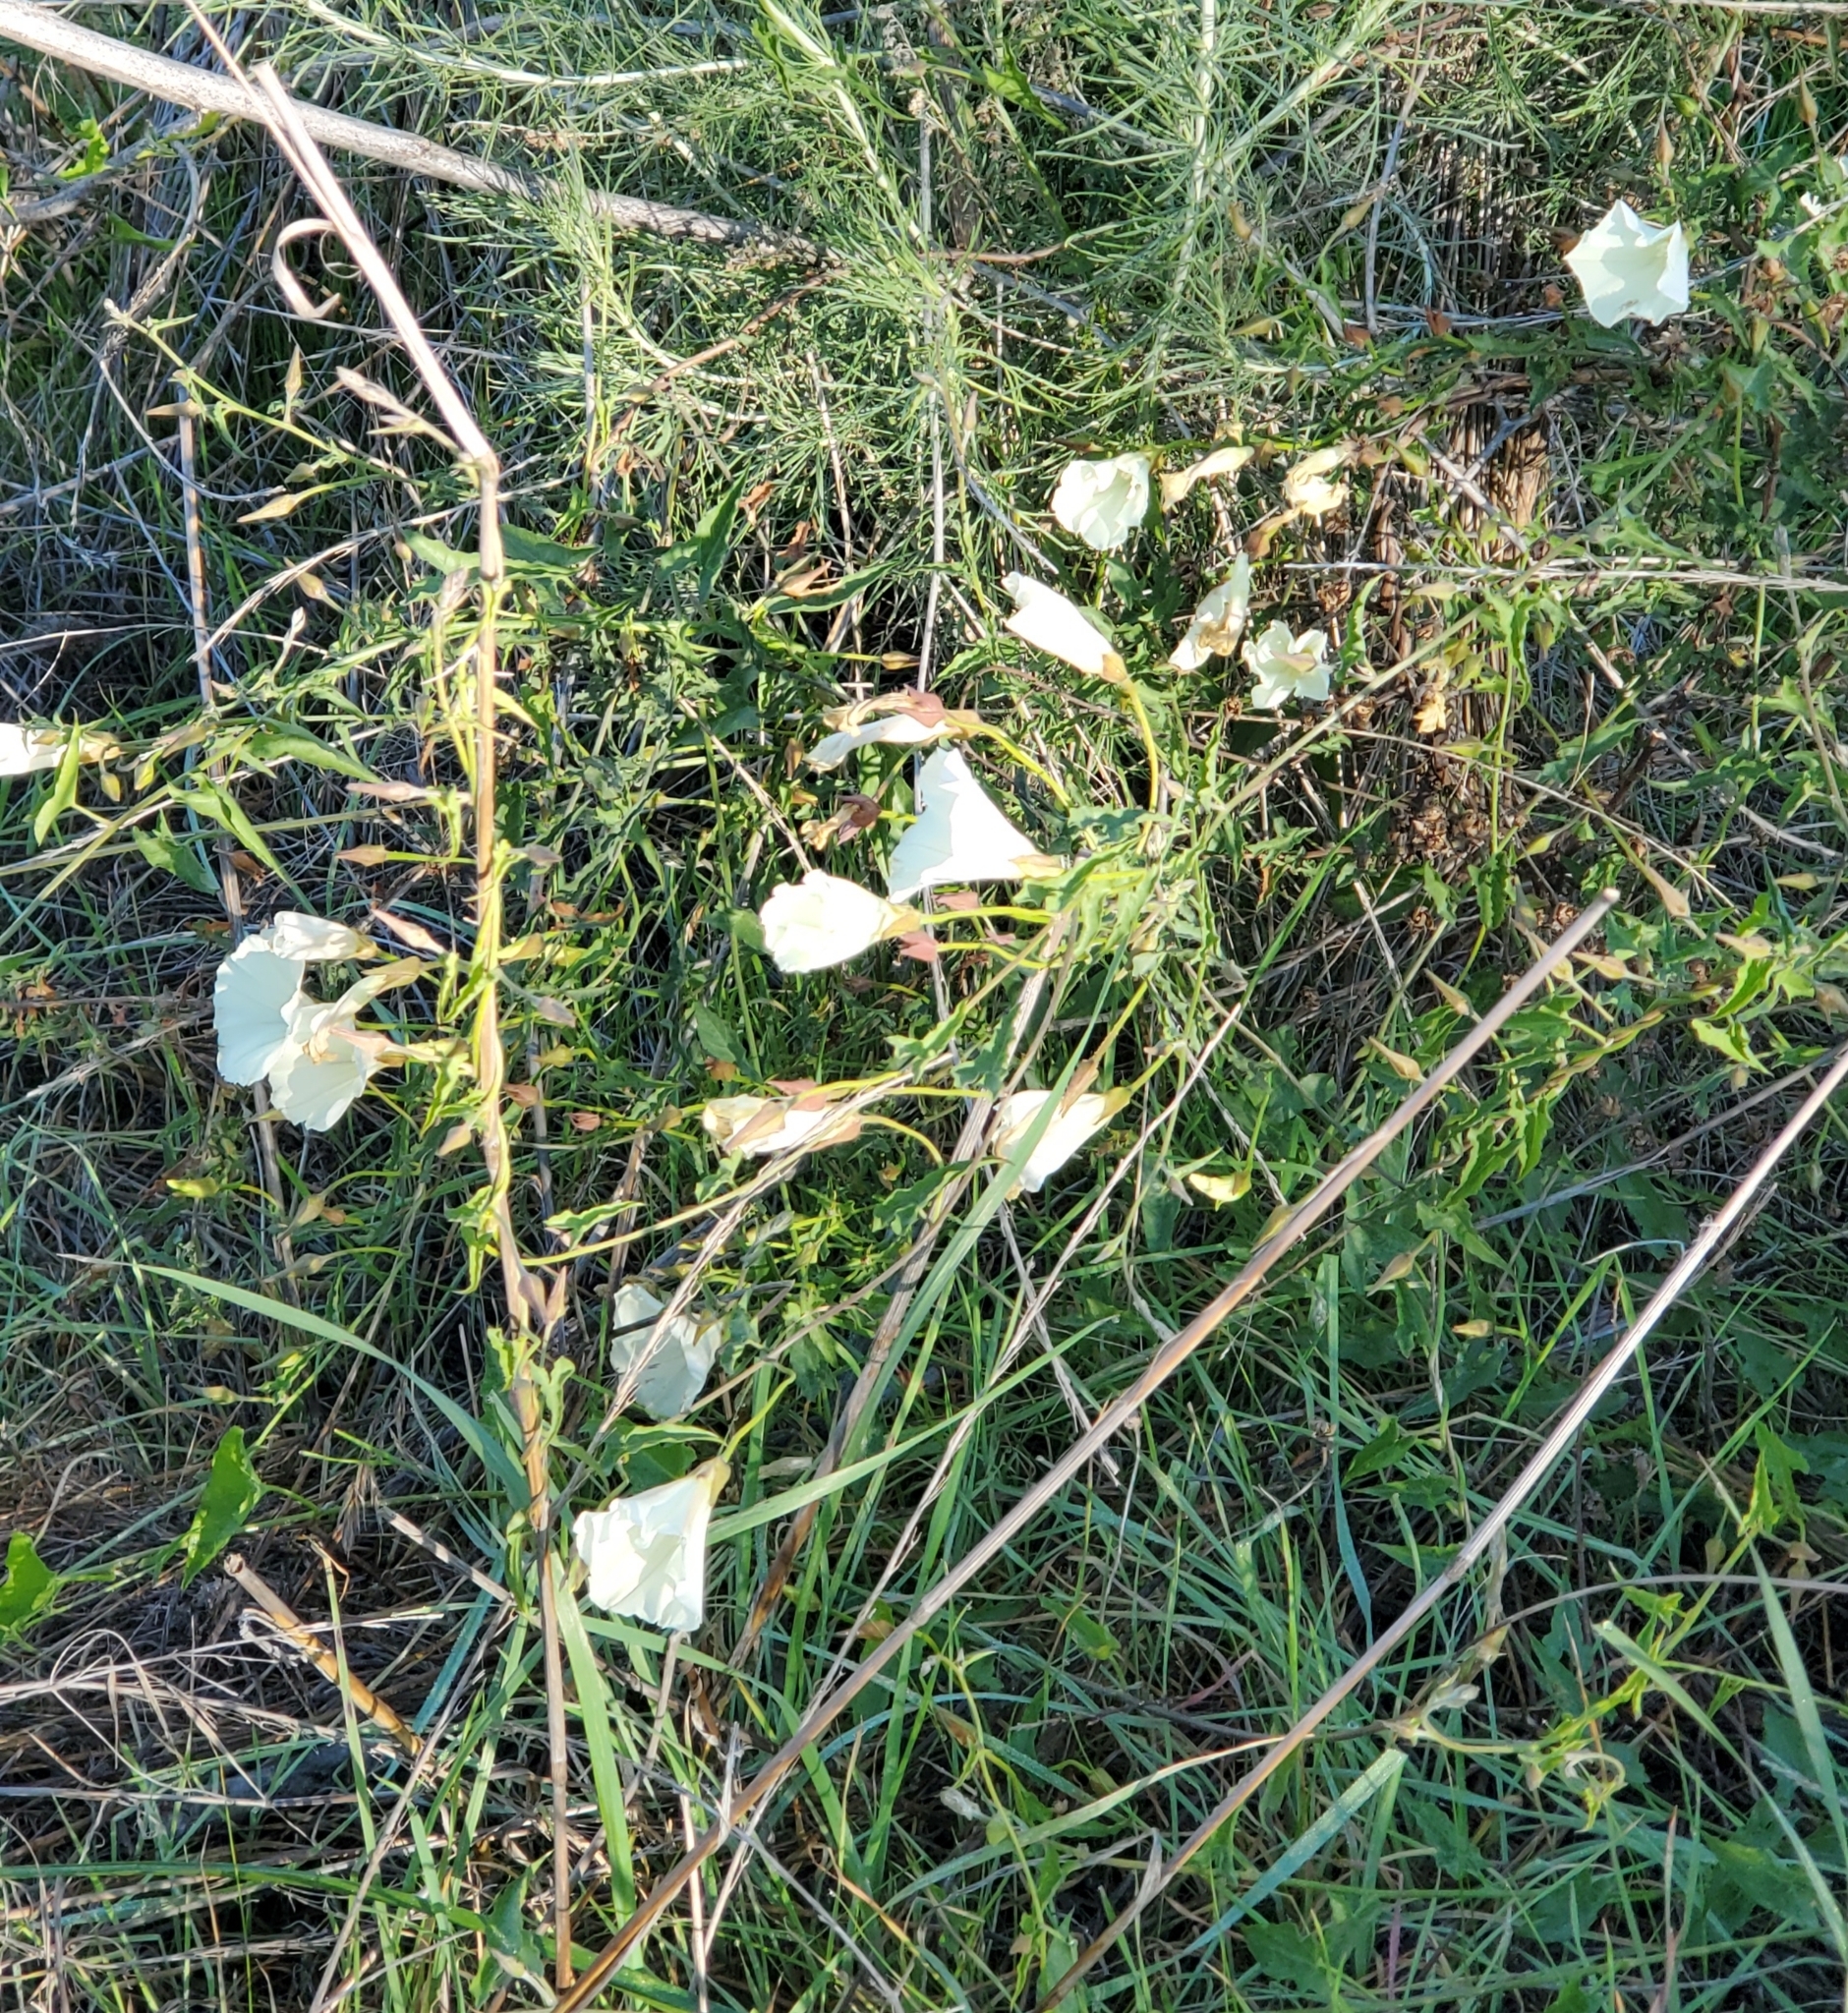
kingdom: Plantae
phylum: Tracheophyta
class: Magnoliopsida
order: Solanales
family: Convolvulaceae
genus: Calystegia
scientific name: Calystegia macrostegia
